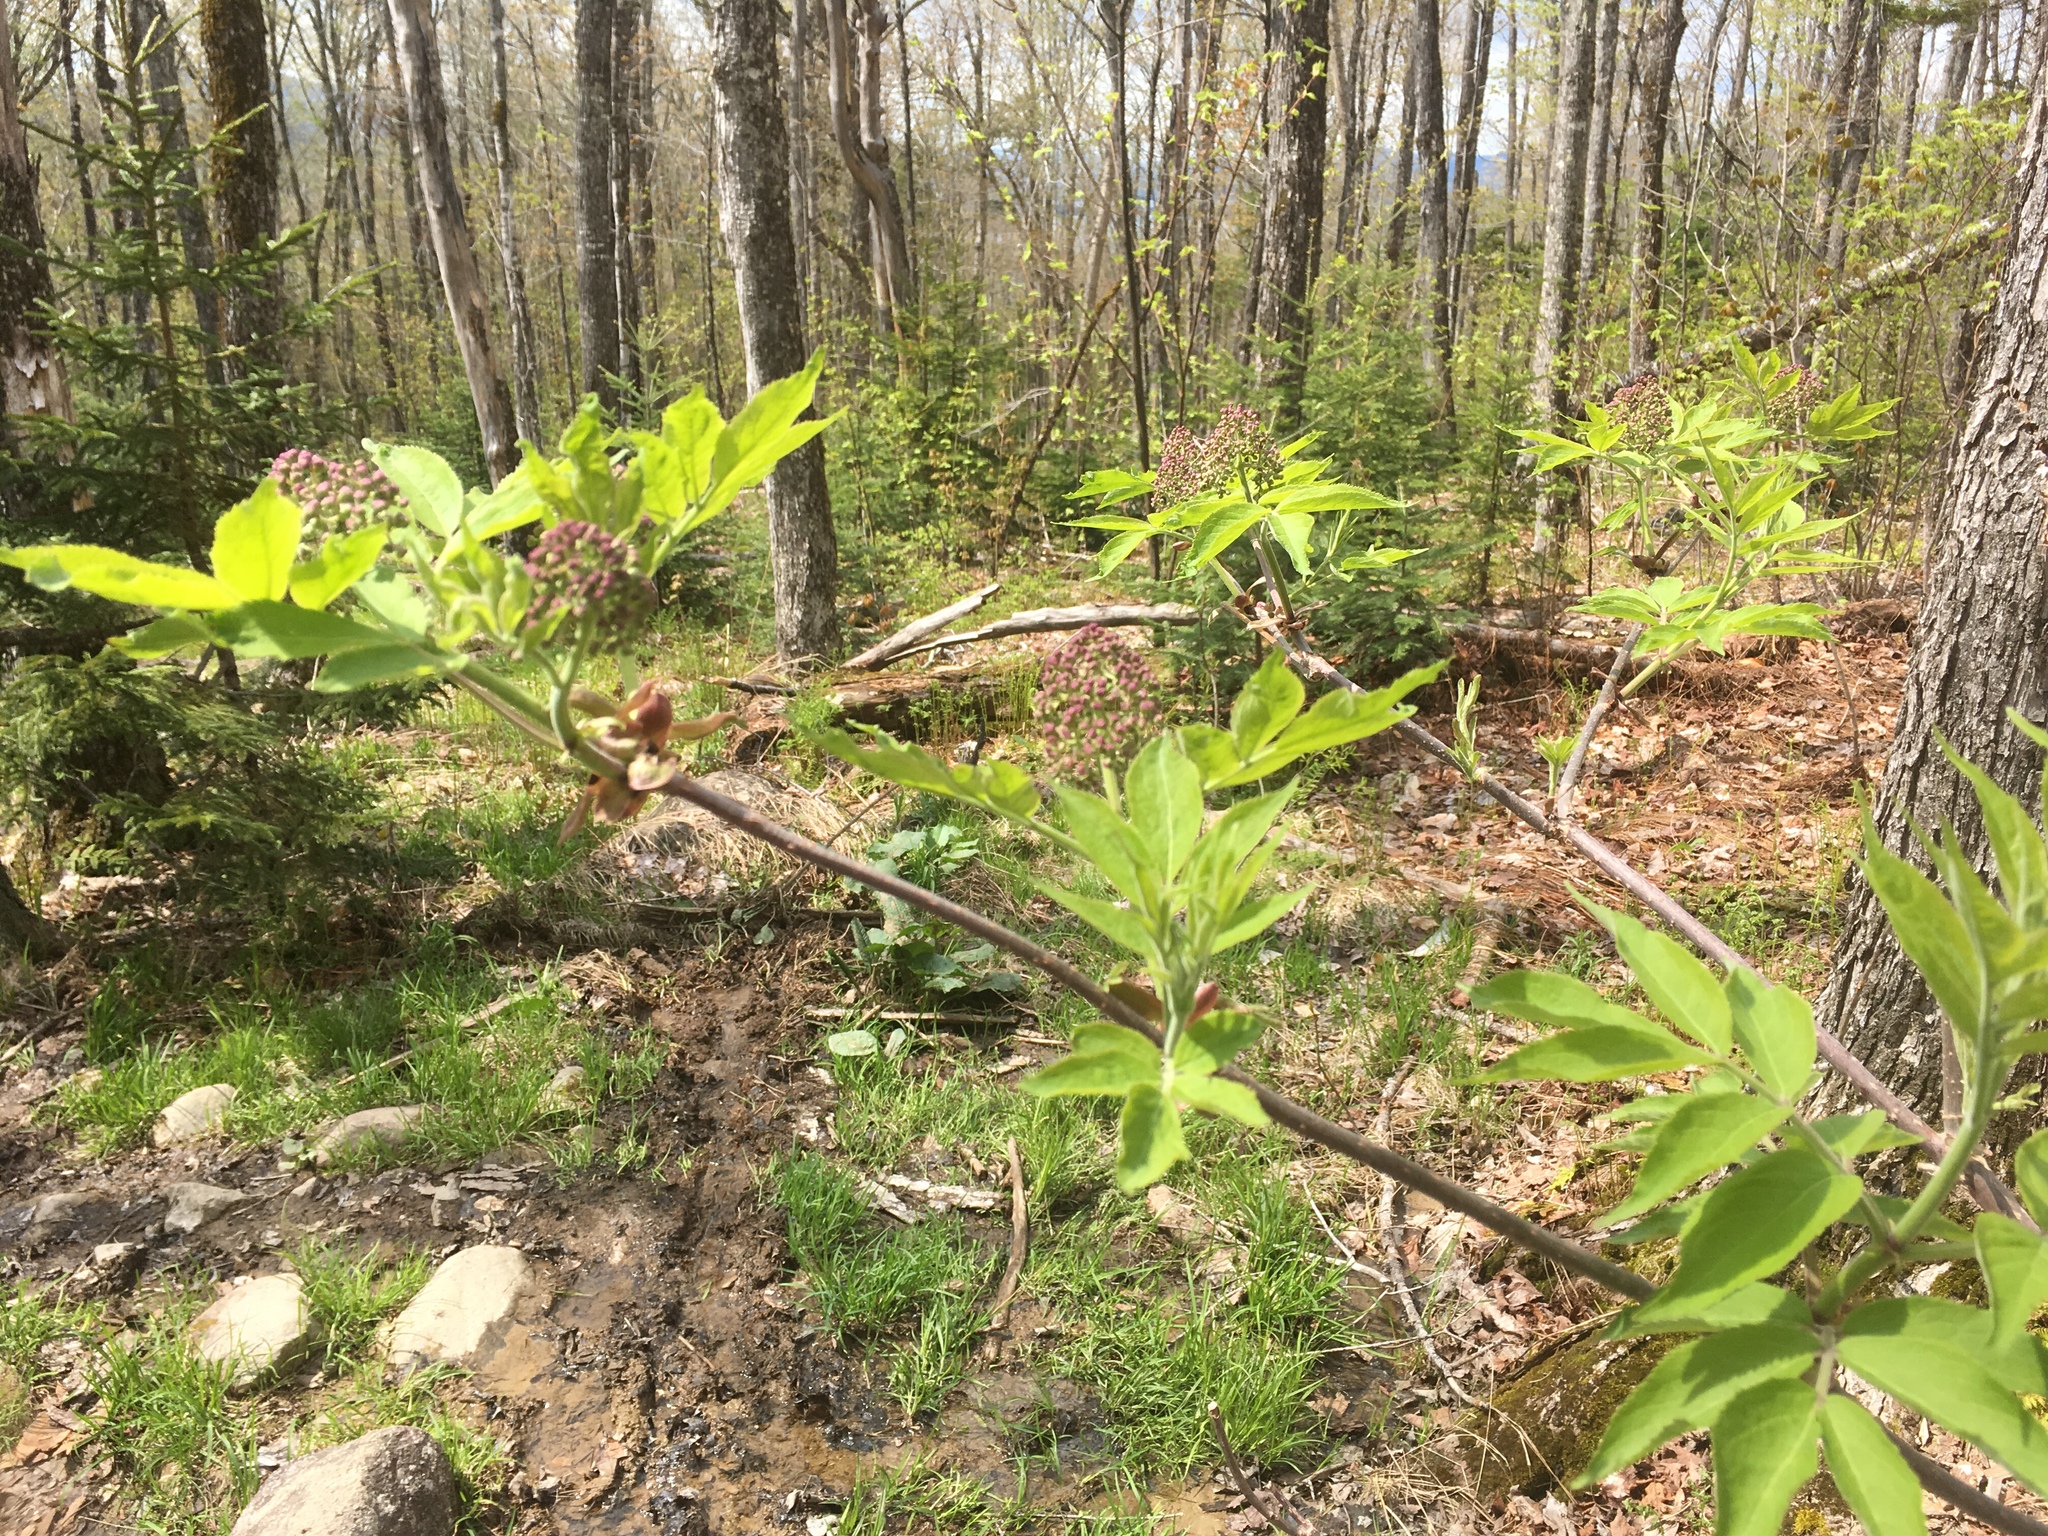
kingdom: Plantae
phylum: Tracheophyta
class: Magnoliopsida
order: Dipsacales
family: Viburnaceae
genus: Sambucus
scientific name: Sambucus racemosa
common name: Red-berried elder
